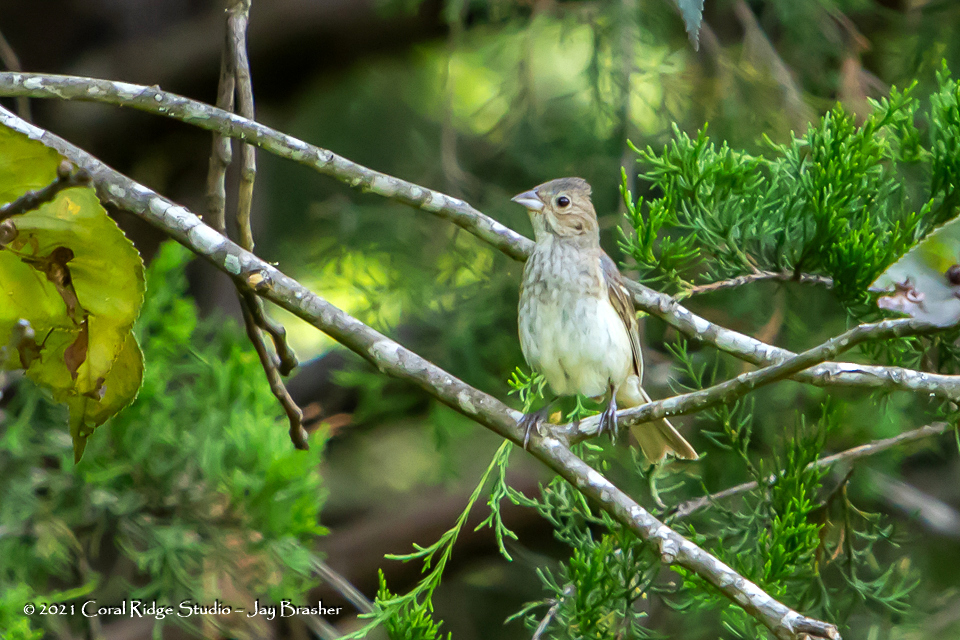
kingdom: Animalia
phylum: Chordata
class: Aves
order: Passeriformes
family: Cardinalidae
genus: Passerina
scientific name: Passerina cyanea
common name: Indigo bunting
